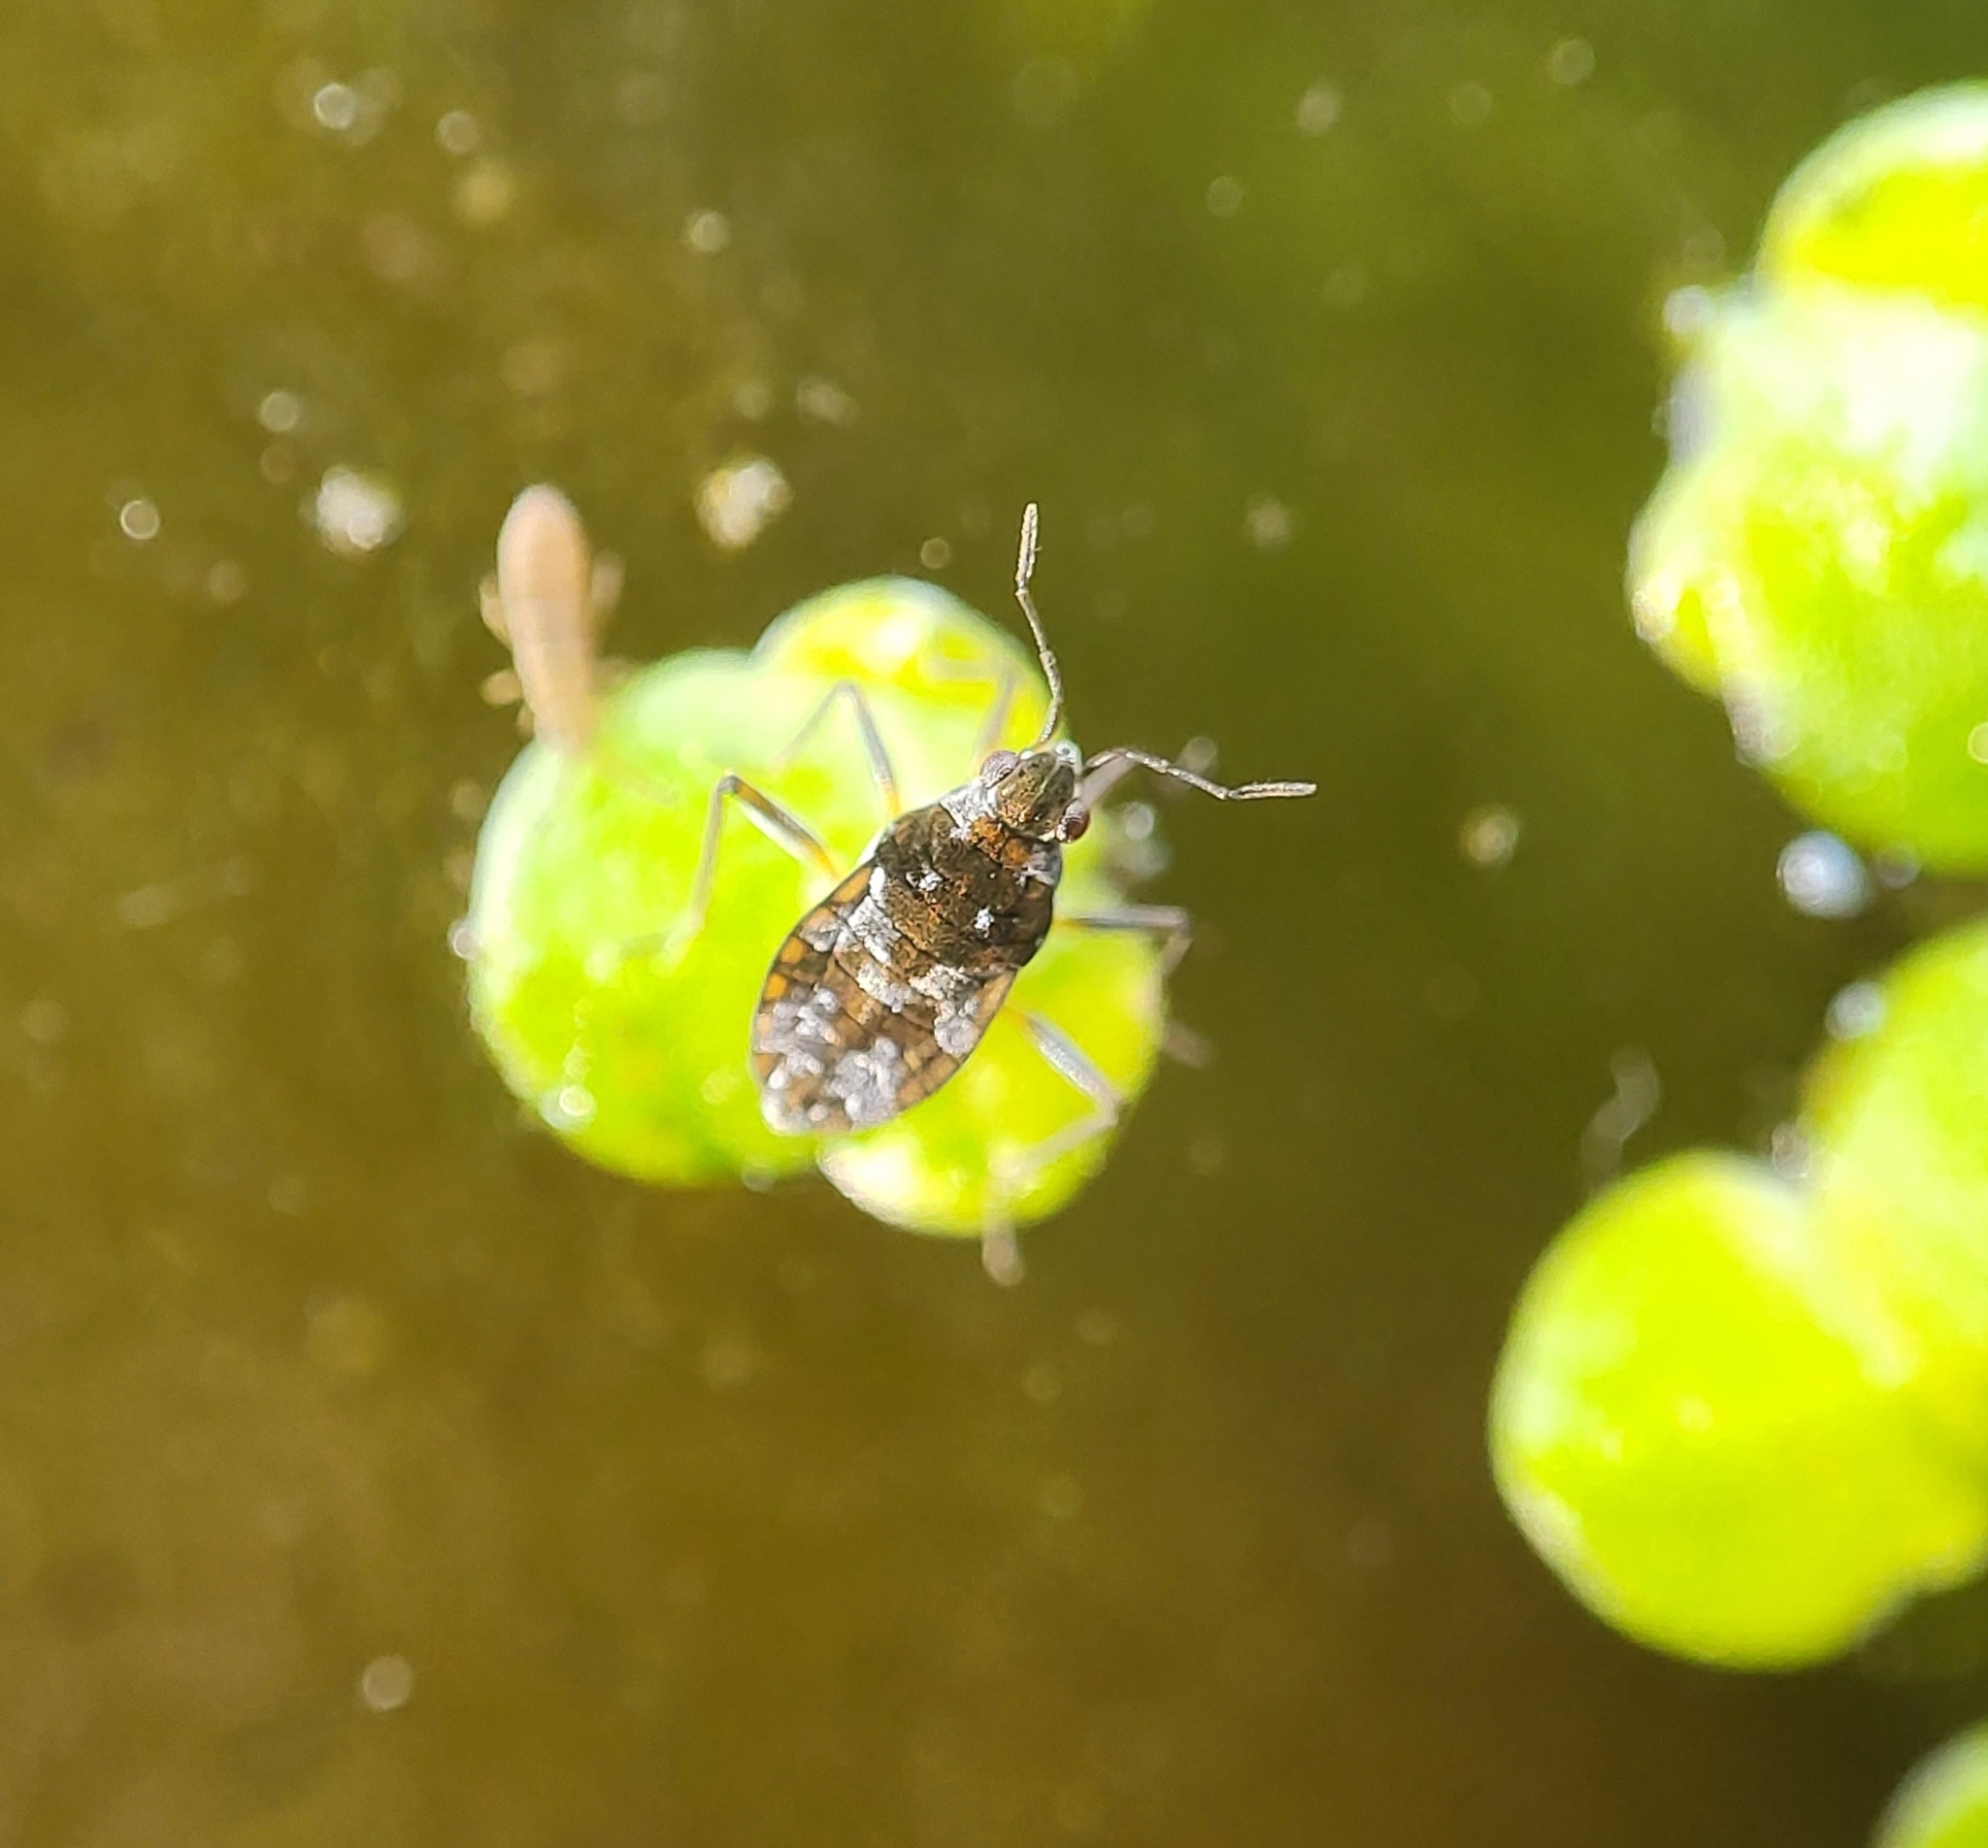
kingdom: Animalia
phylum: Arthropoda
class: Insecta
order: Hemiptera
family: Veliidae
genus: Microvelia
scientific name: Microvelia americana
